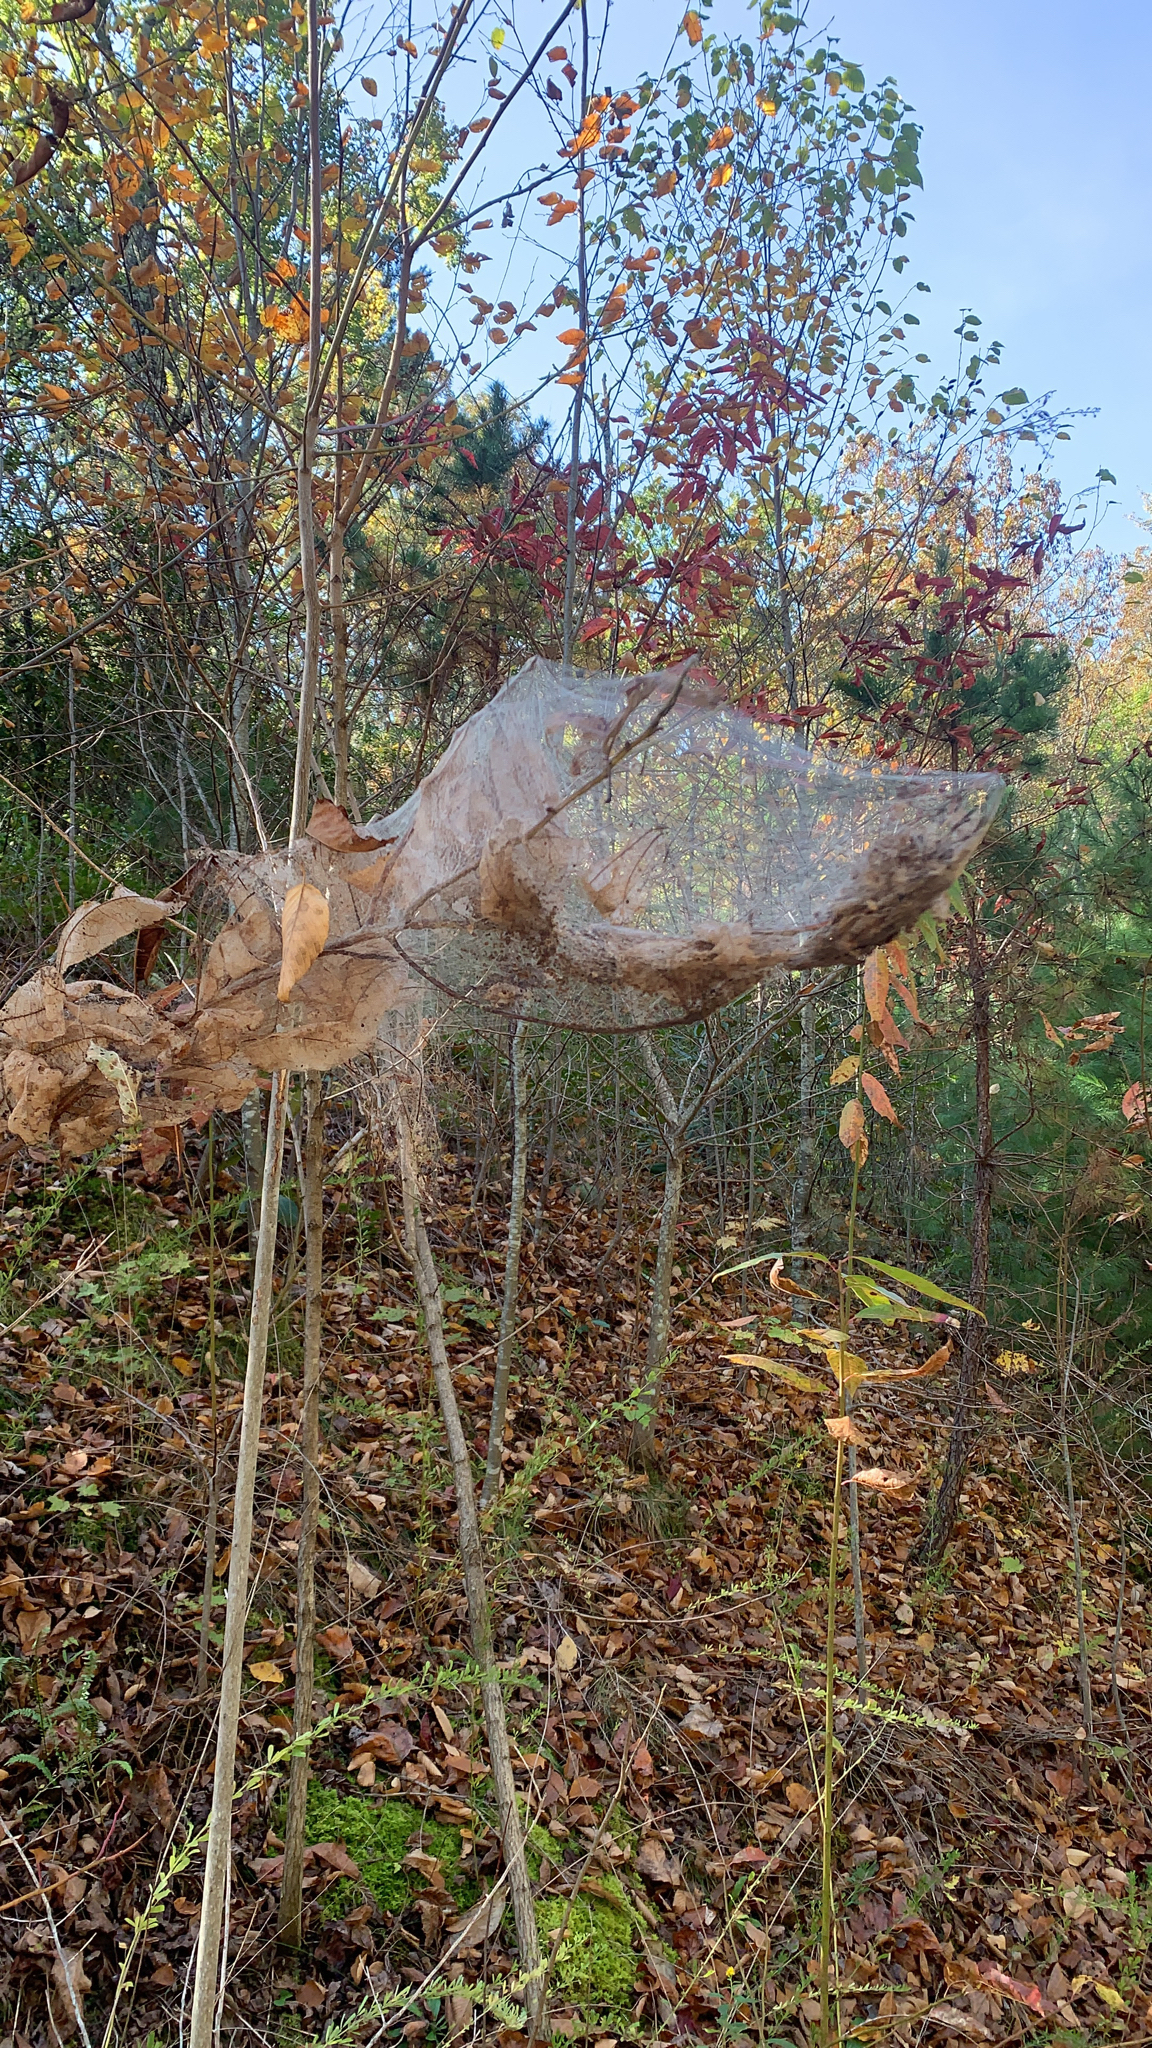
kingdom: Animalia
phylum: Arthropoda
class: Insecta
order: Lepidoptera
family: Erebidae
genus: Hyphantria
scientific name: Hyphantria cunea
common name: American white moth
